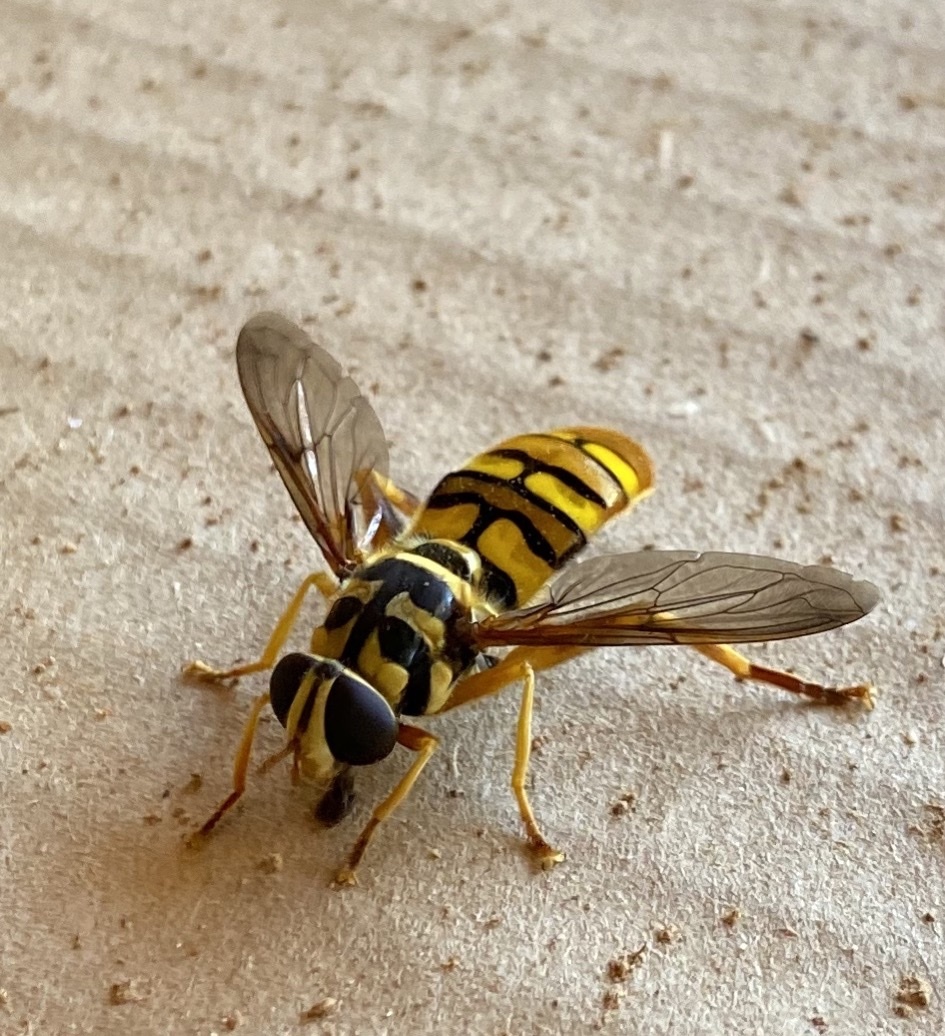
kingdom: Animalia
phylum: Arthropoda
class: Insecta
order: Diptera
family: Syrphidae
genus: Milesia
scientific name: Milesia virginiensis
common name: Virginia giant
